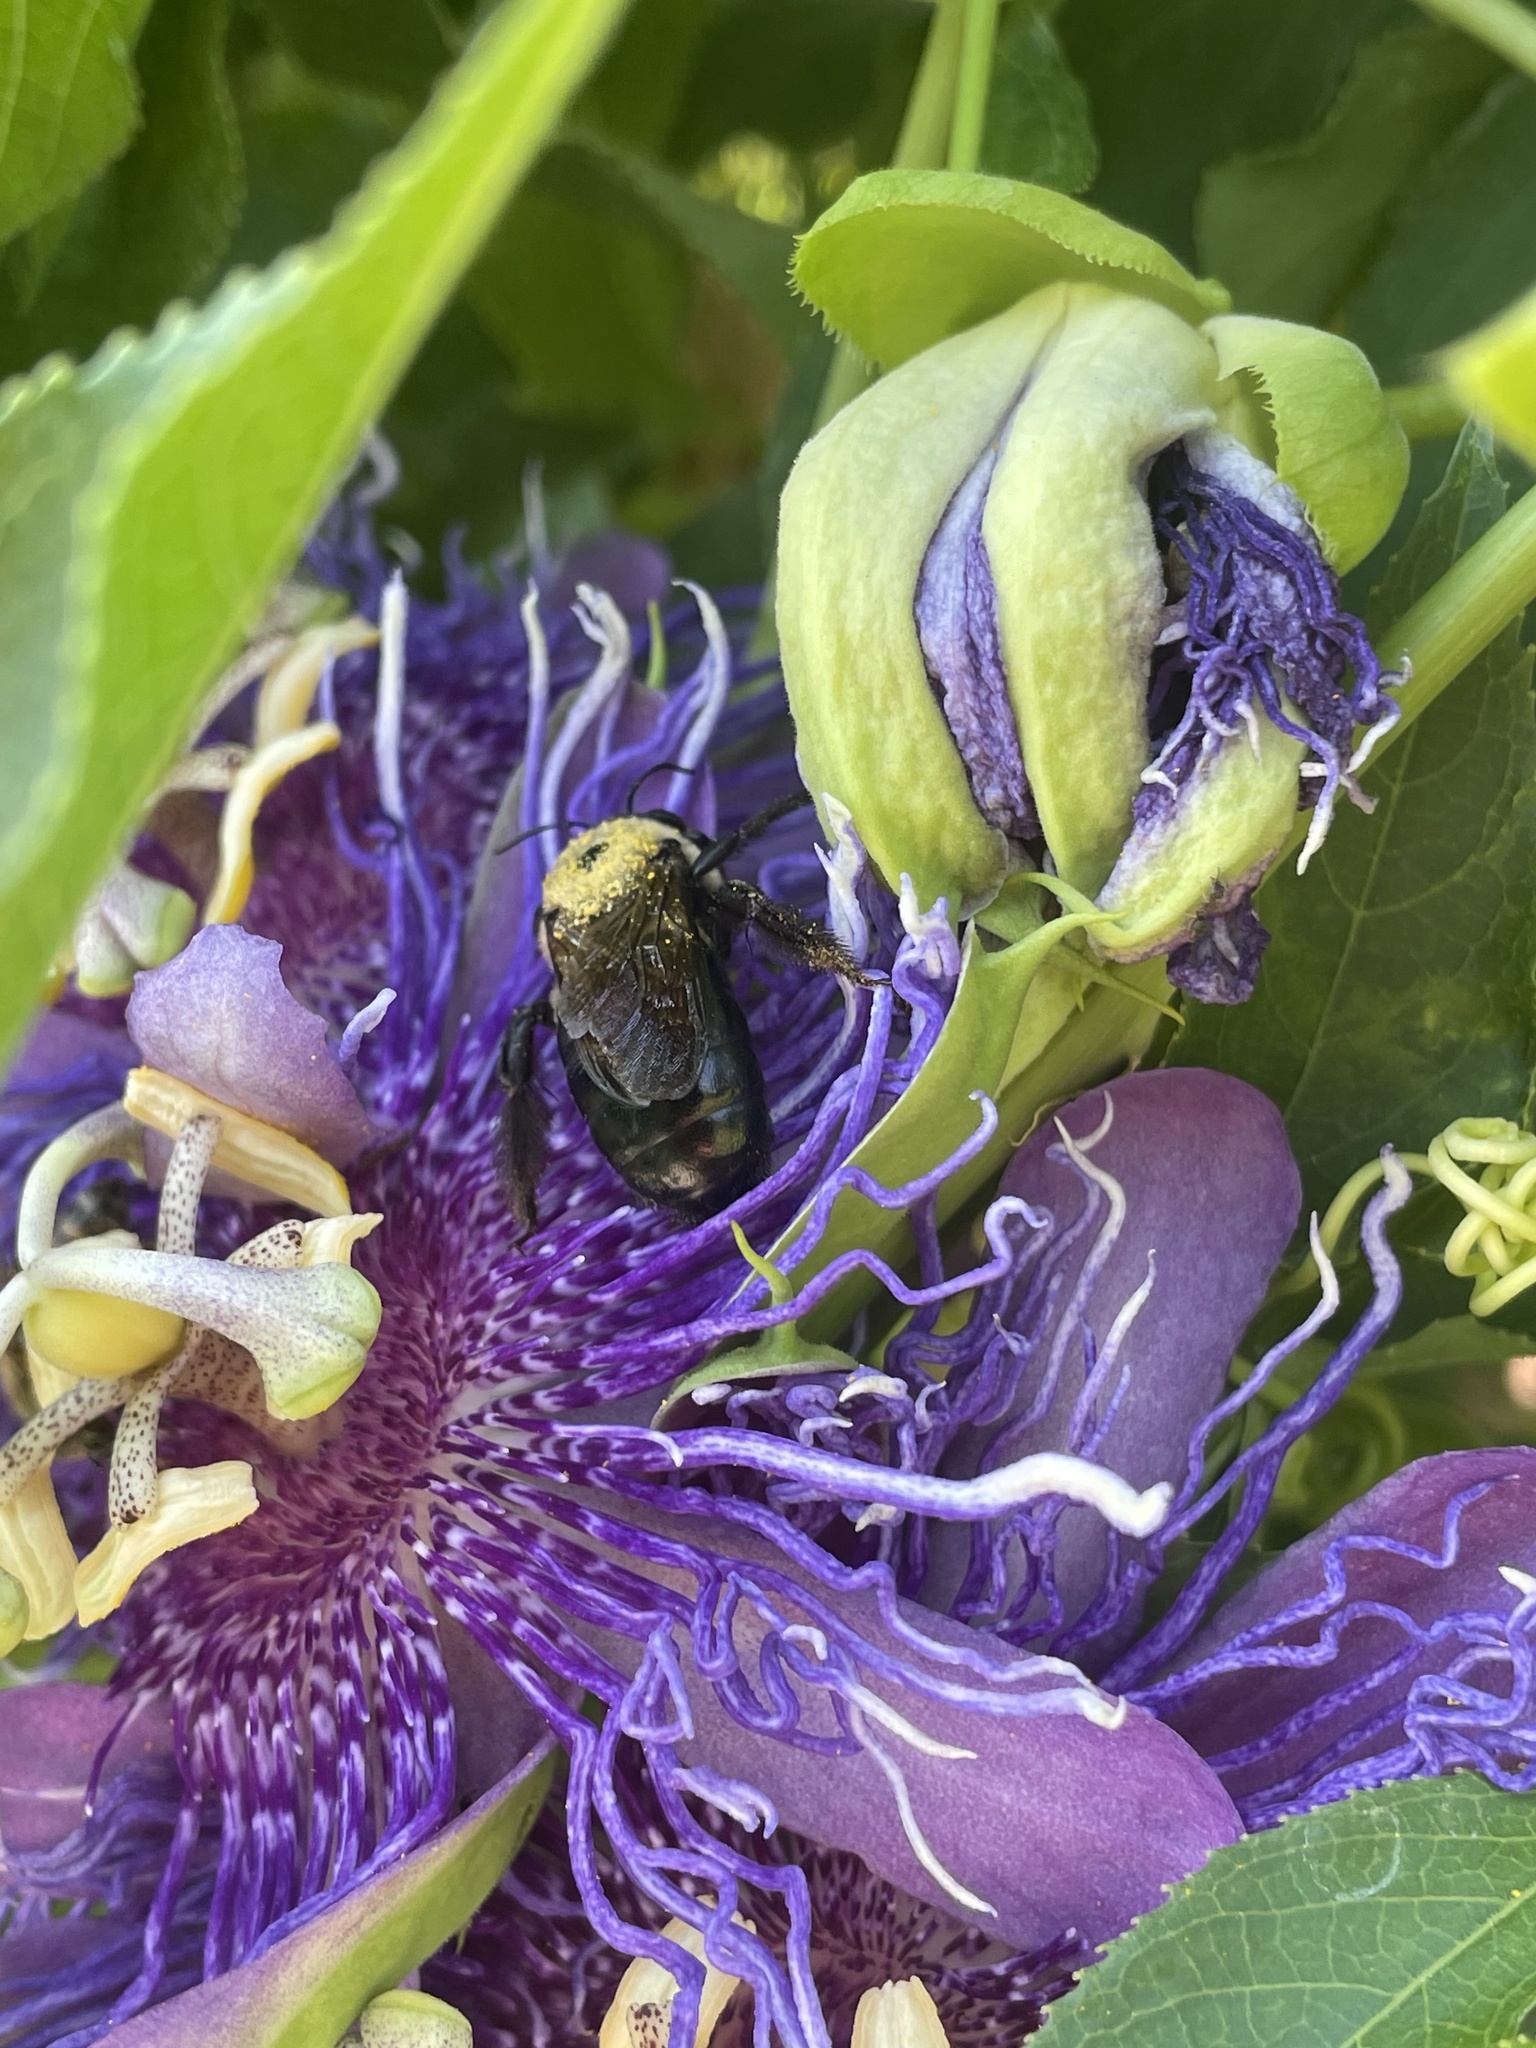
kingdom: Animalia
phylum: Arthropoda
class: Insecta
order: Hymenoptera
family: Apidae
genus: Xylocopa
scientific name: Xylocopa virginica
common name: Carpenter bee
